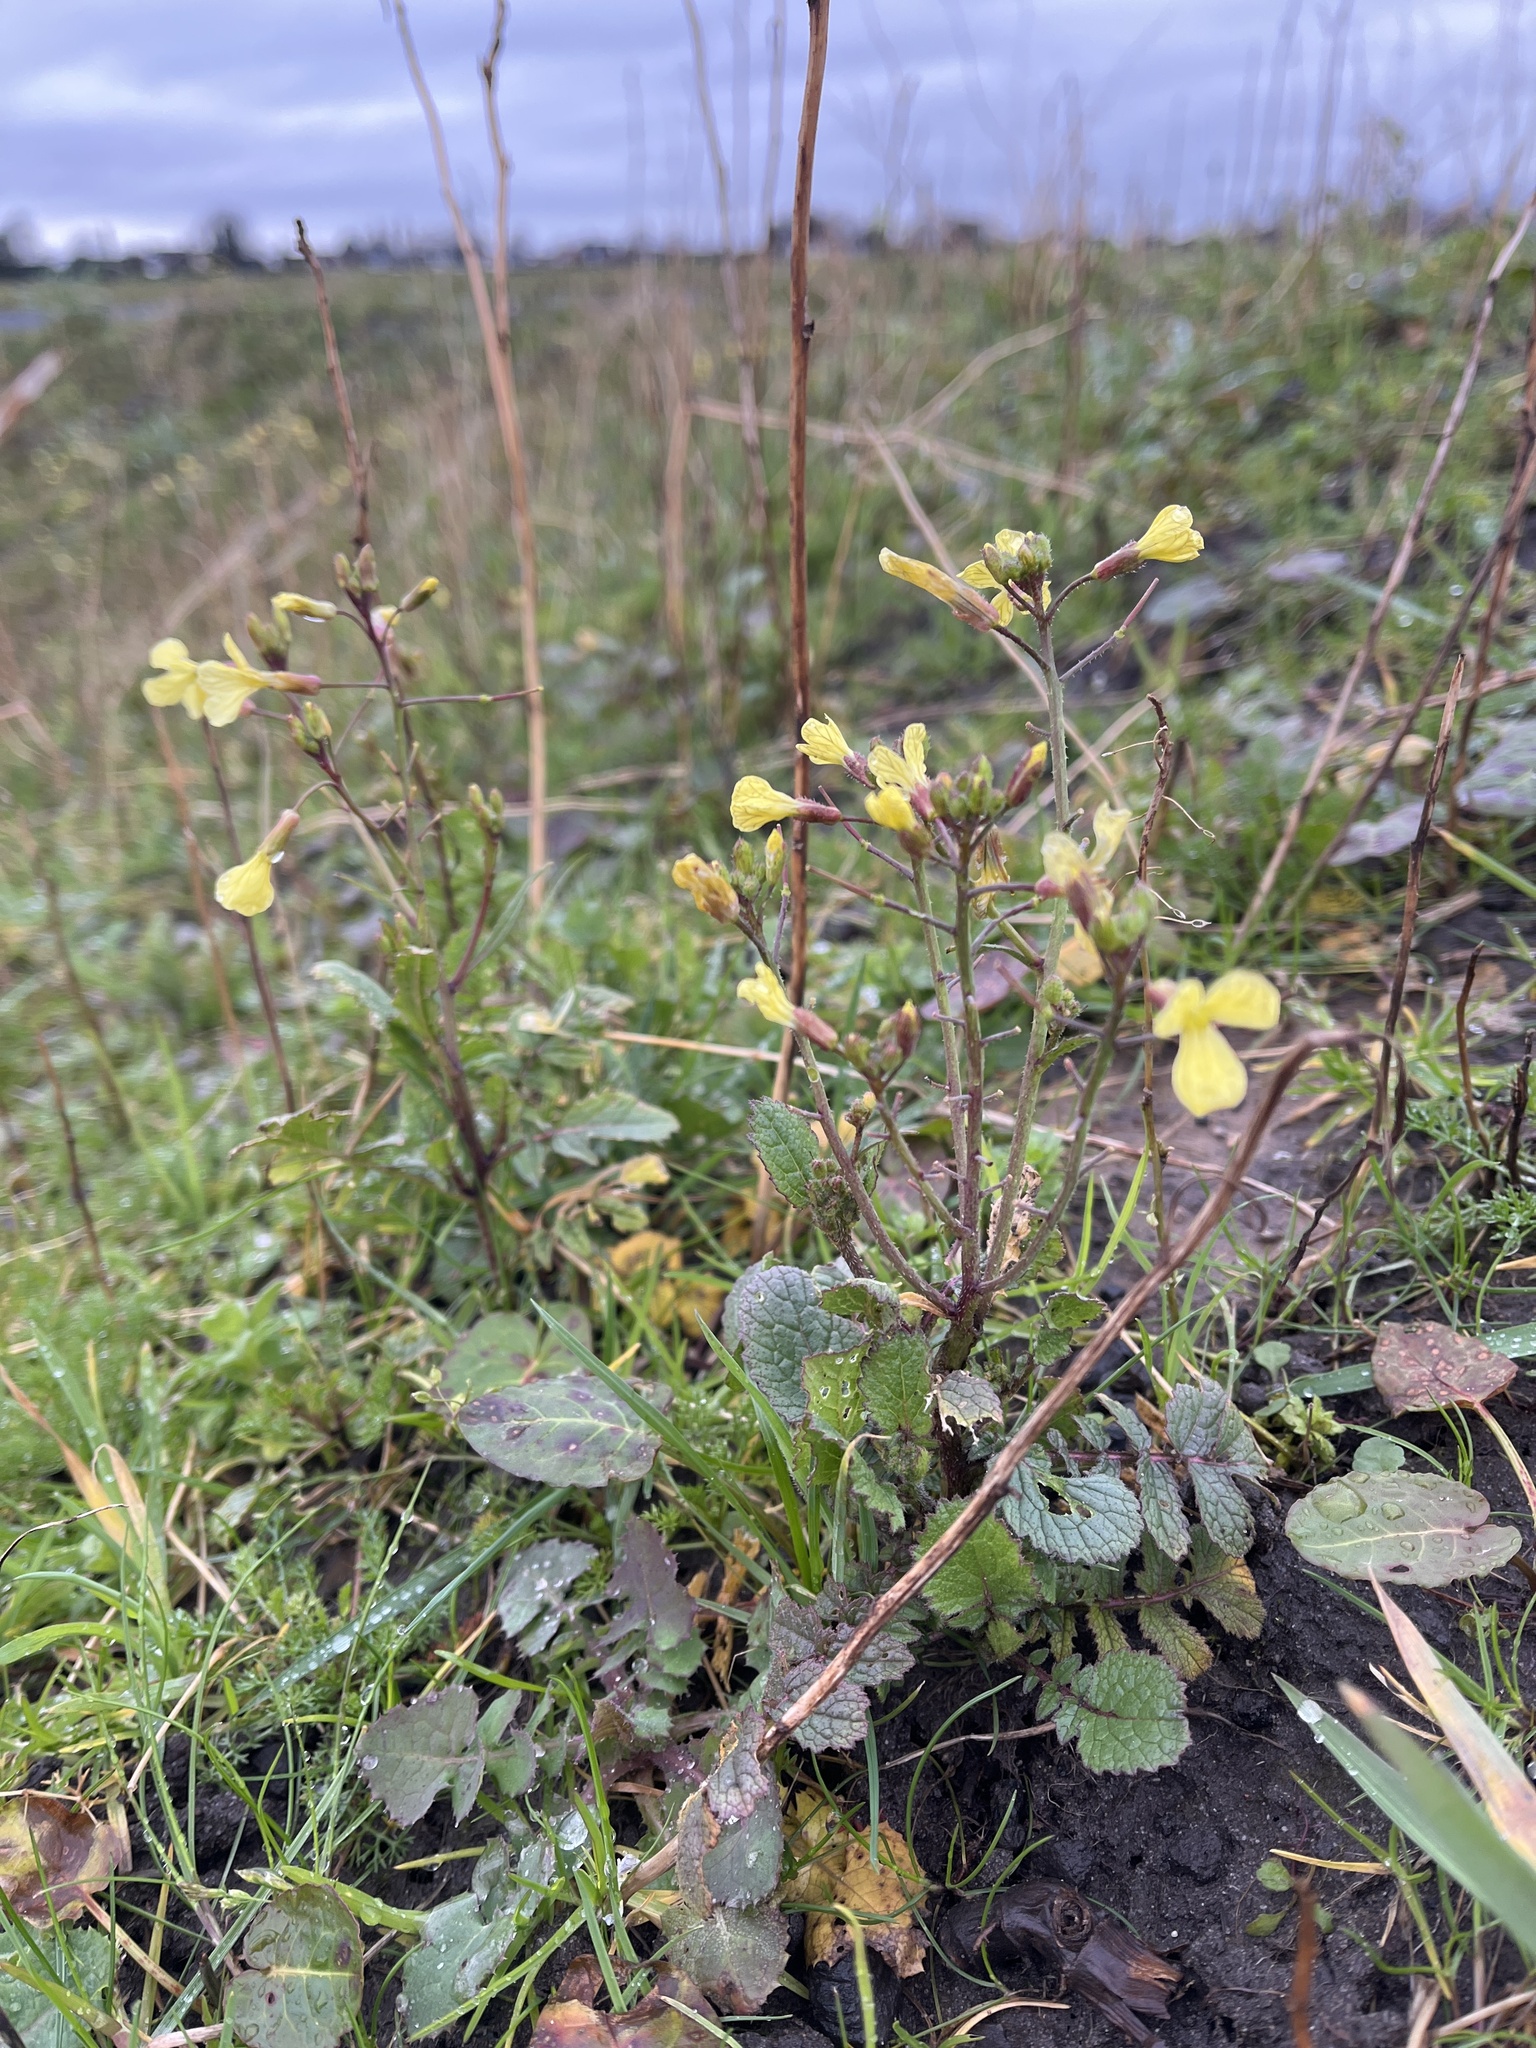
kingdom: Plantae
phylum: Tracheophyta
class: Magnoliopsida
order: Brassicales
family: Brassicaceae
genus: Raphanus
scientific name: Raphanus raphanistrum
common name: Wild radish
